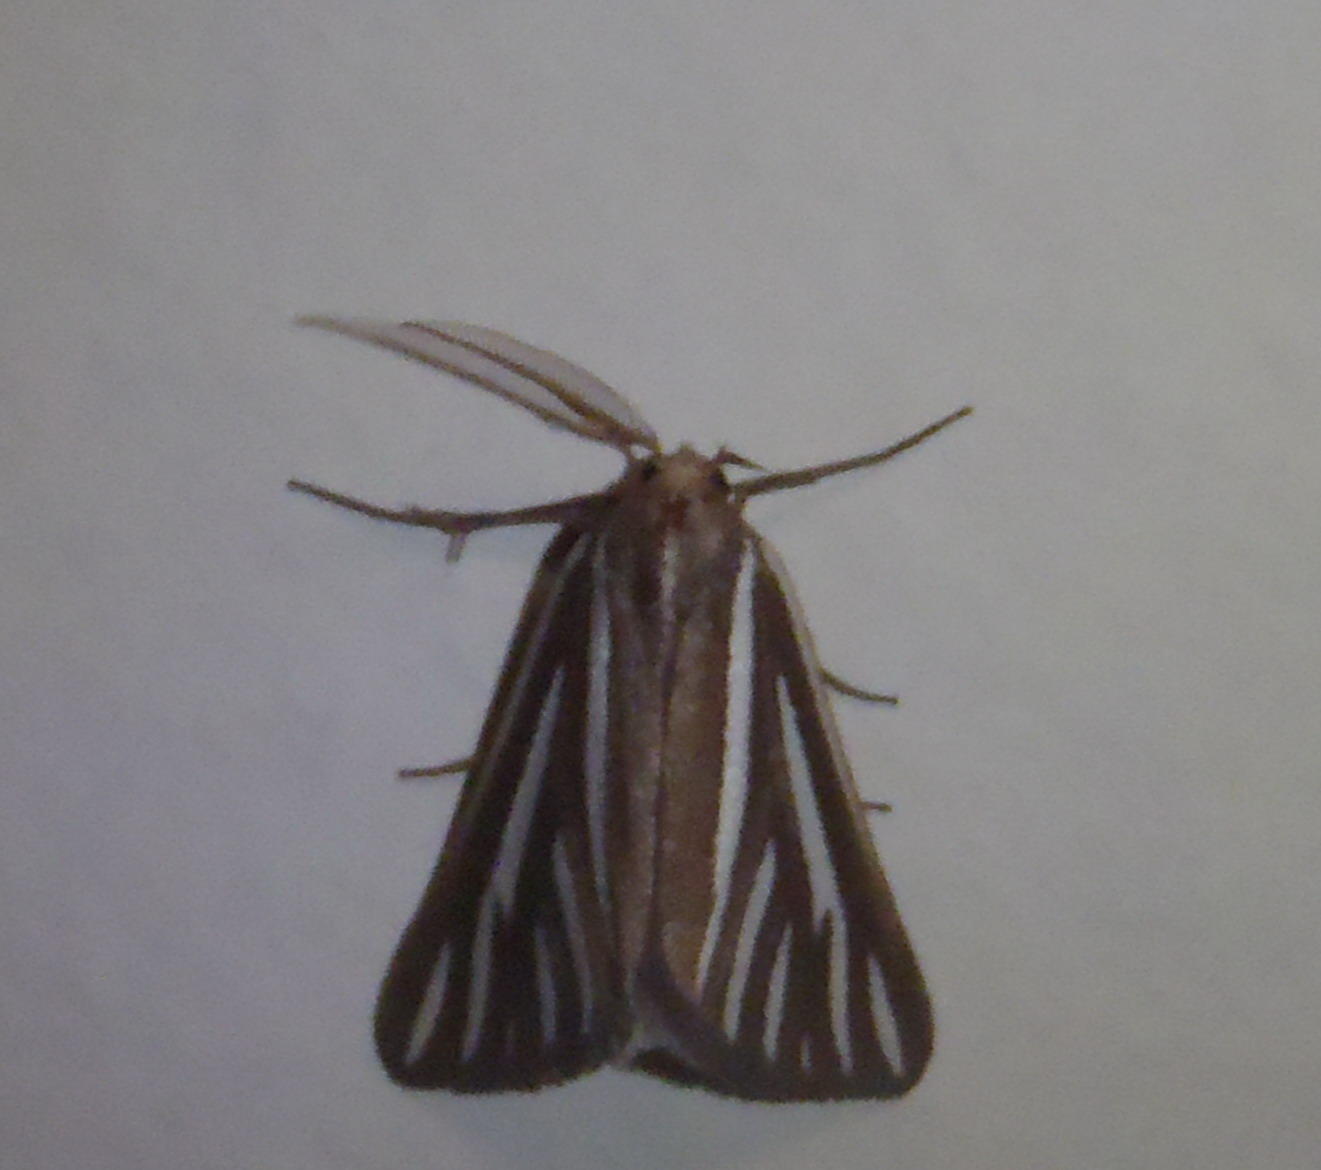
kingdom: Animalia
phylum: Arthropoda
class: Insecta
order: Lepidoptera
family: Geometridae
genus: Pseudomaenas
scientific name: Pseudomaenas alcidata
